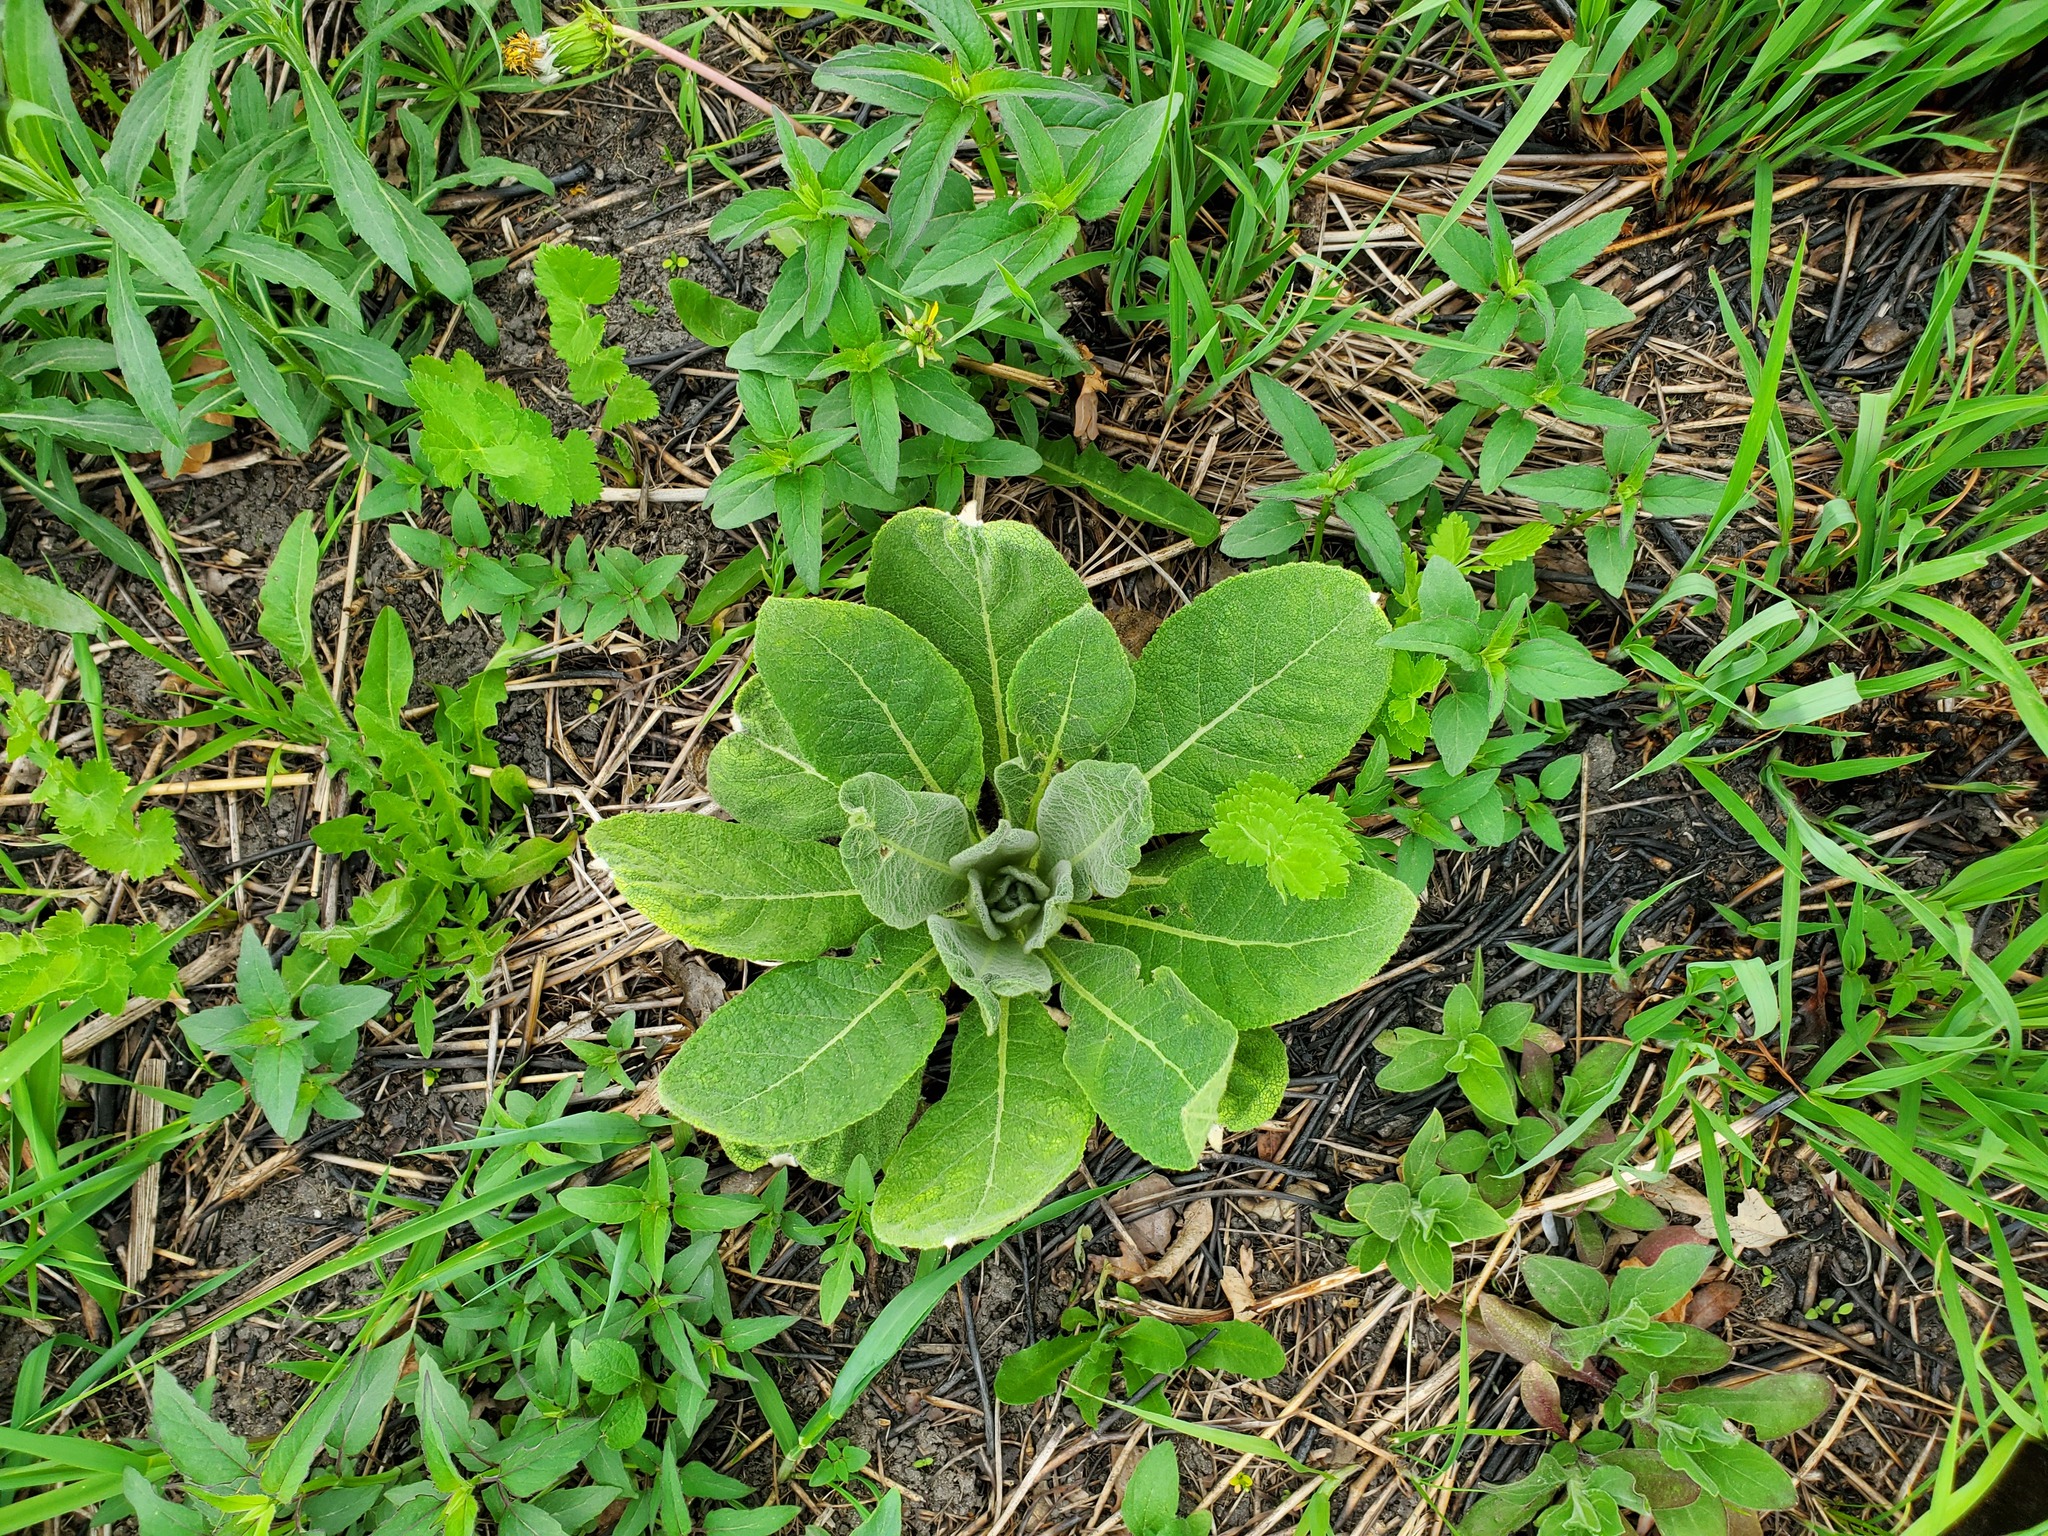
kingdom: Plantae
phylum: Tracheophyta
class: Magnoliopsida
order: Lamiales
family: Scrophulariaceae
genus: Verbascum
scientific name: Verbascum thapsus
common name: Common mullein
